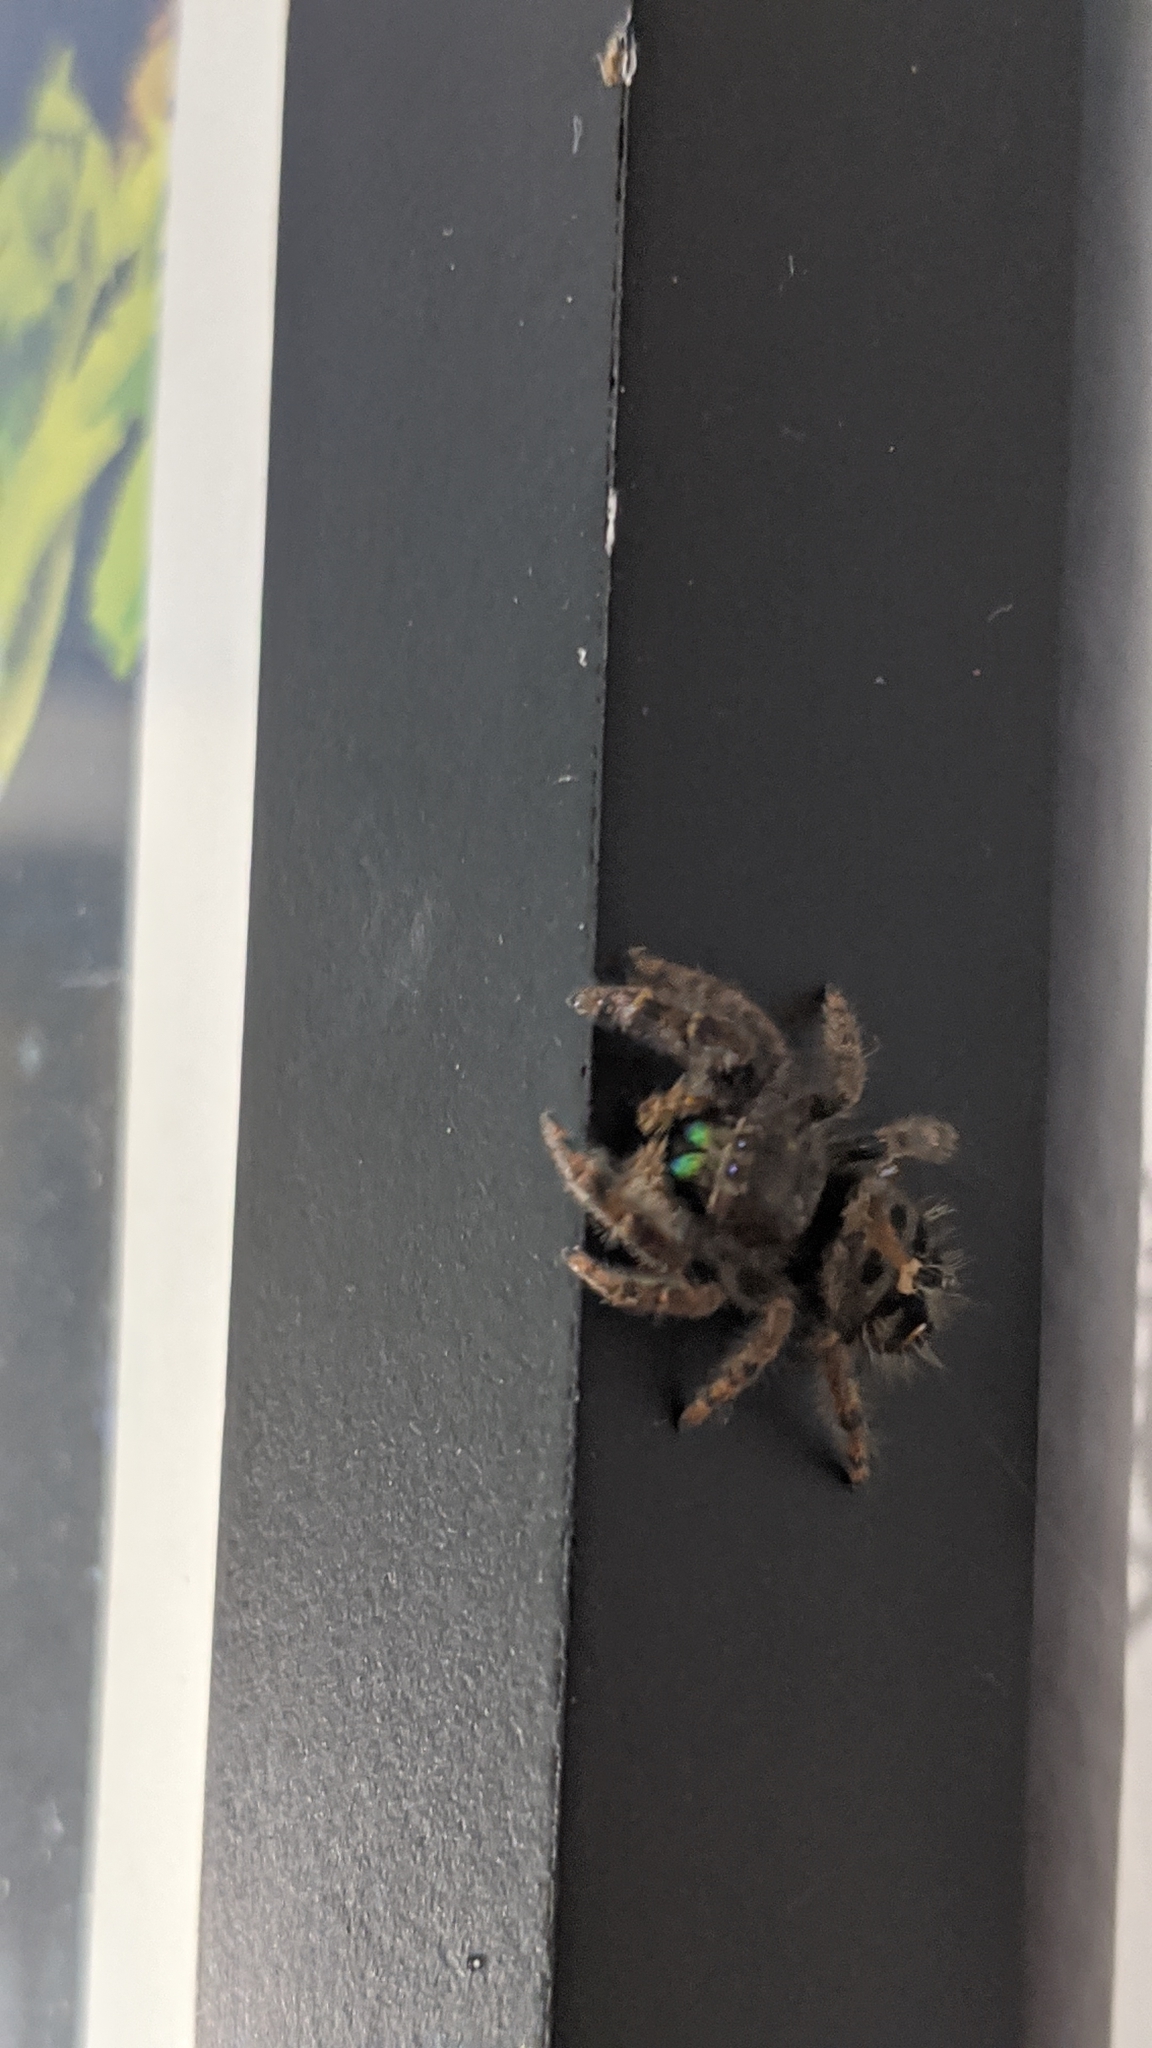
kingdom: Animalia
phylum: Arthropoda
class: Arachnida
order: Araneae
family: Salticidae
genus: Phidippus
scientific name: Phidippus audax
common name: Bold jumper
